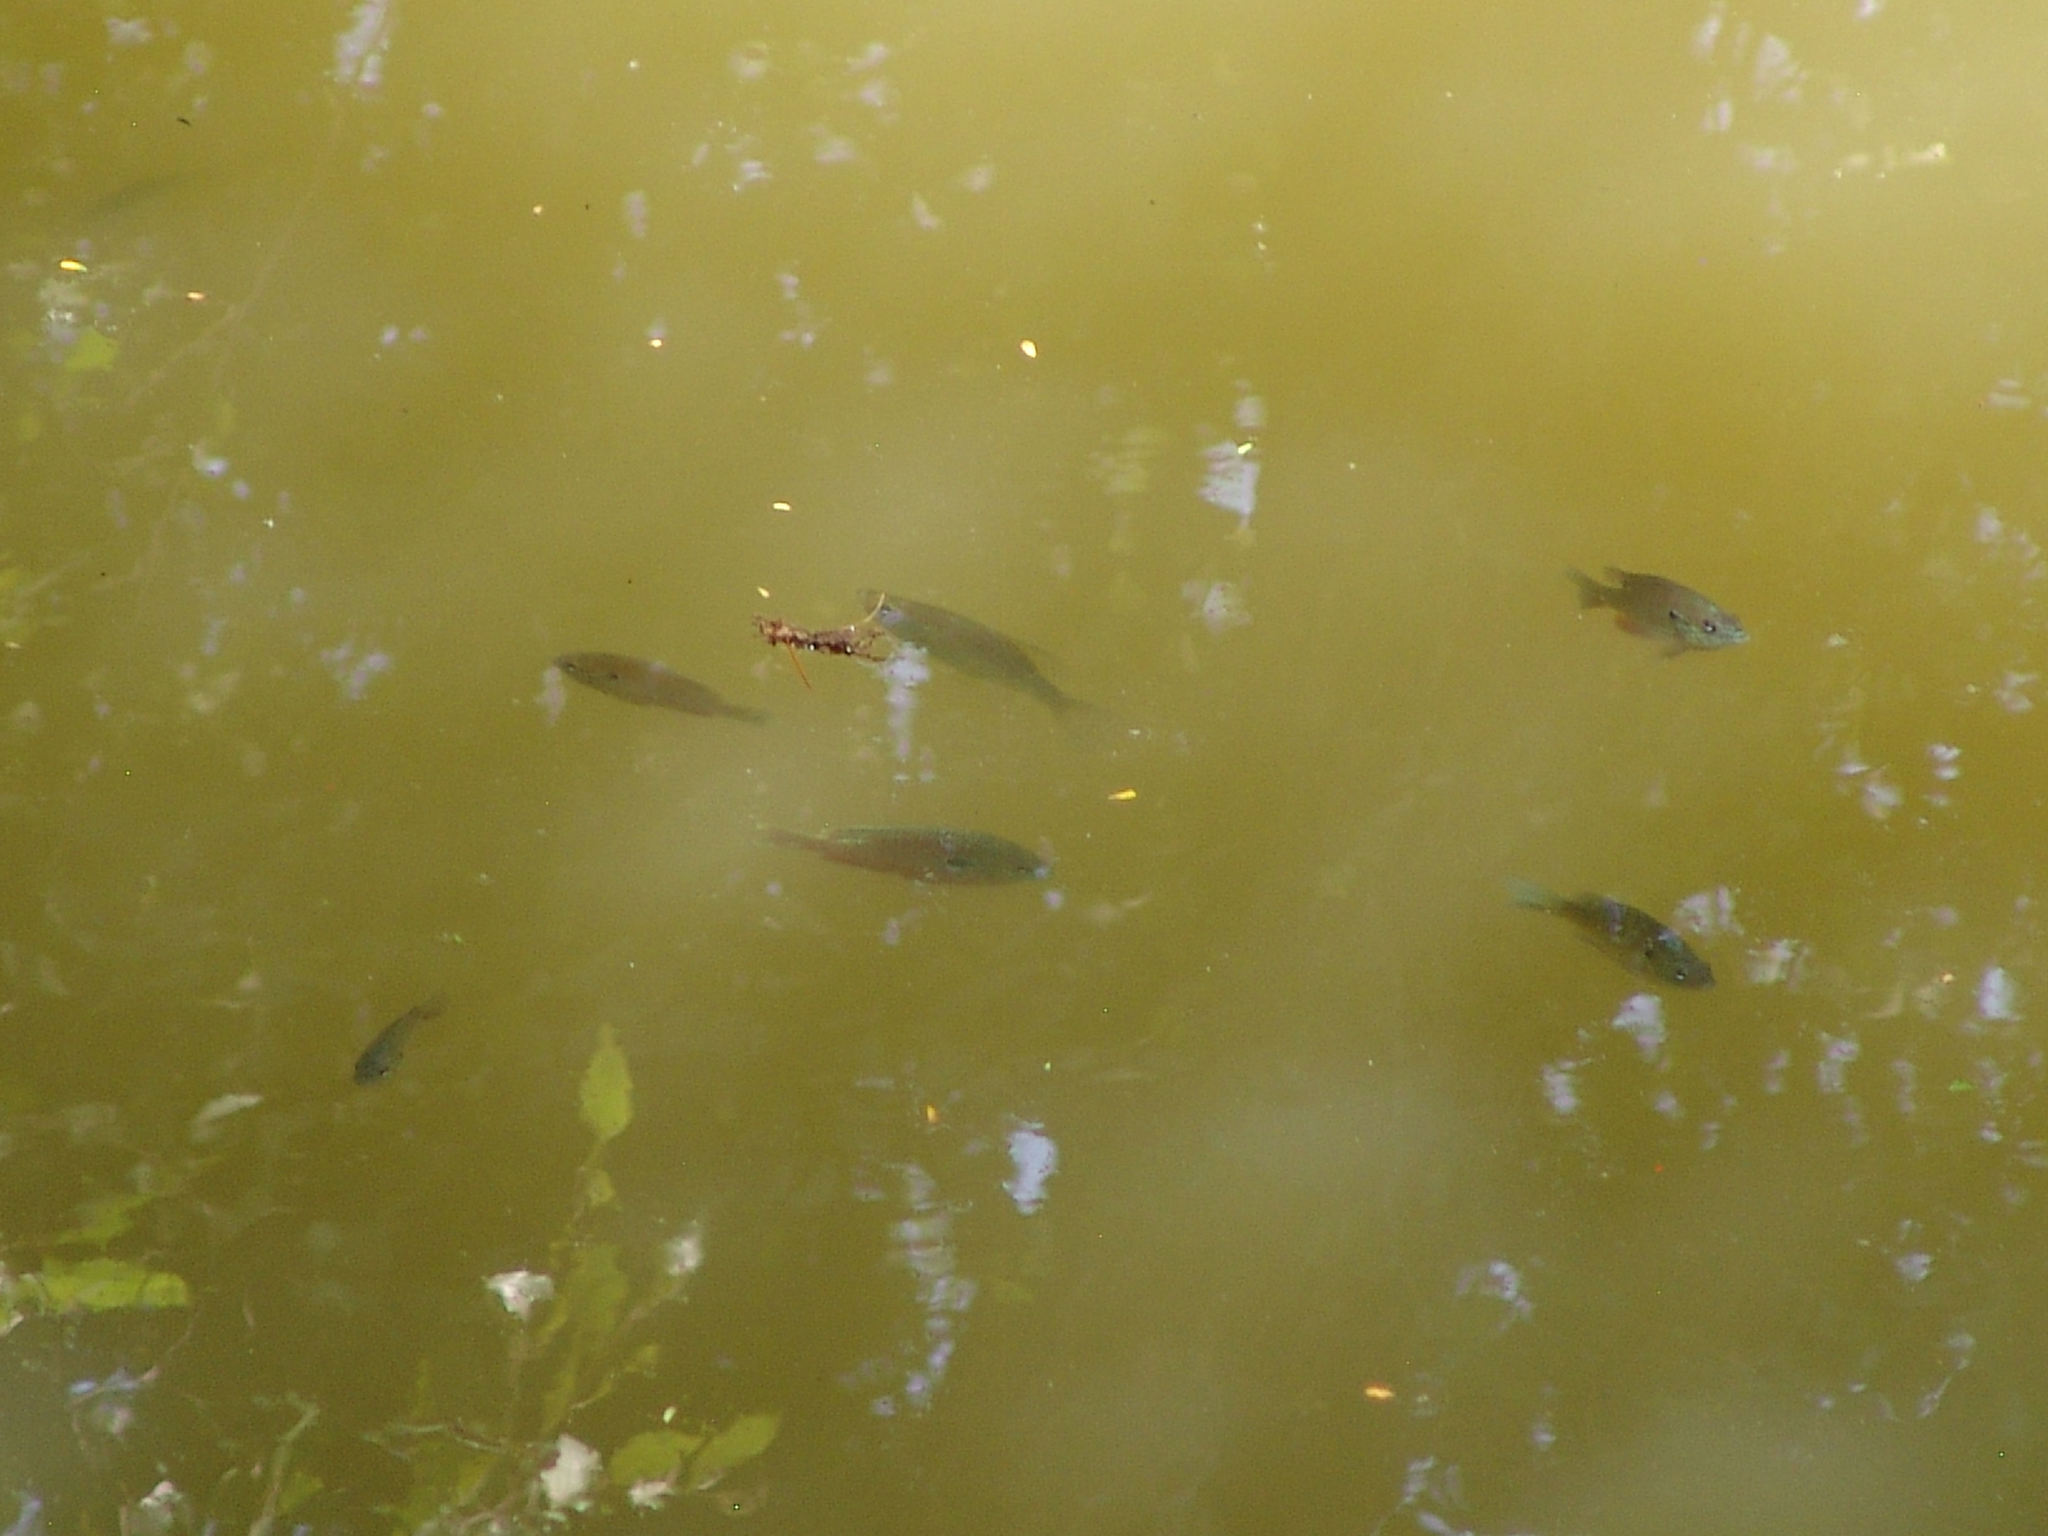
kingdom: Animalia
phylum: Chordata
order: Perciformes
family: Centrarchidae
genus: Lepomis
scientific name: Lepomis megalotis
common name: Longear sunfish
